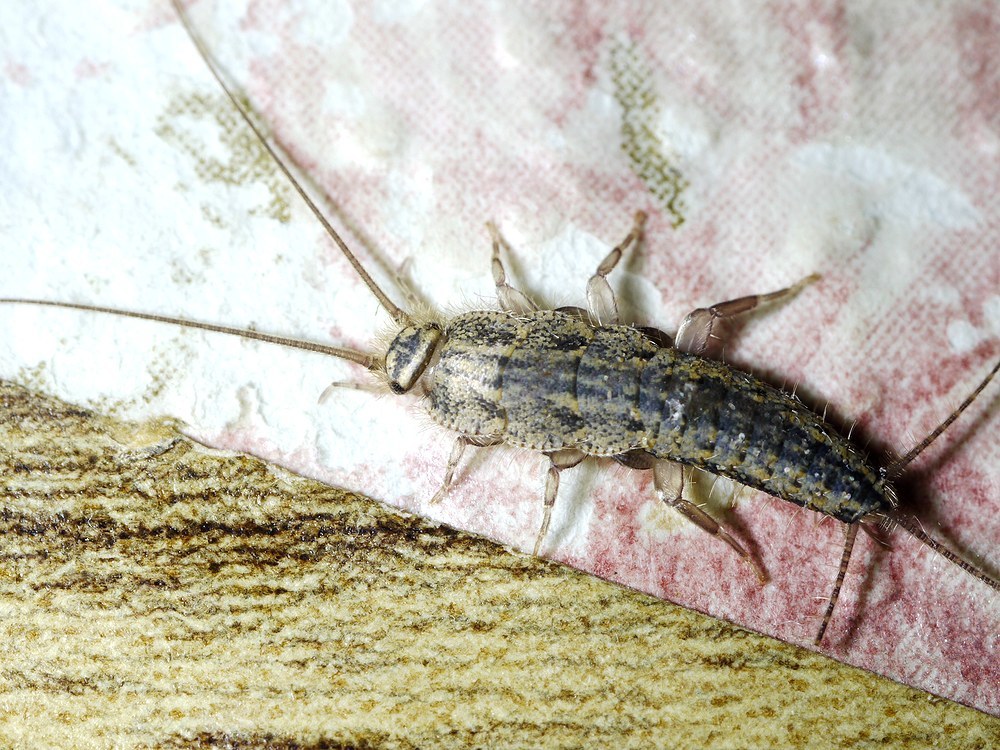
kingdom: Animalia
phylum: Arthropoda
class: Insecta
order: Zygentoma
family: Lepismatidae
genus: Ctenolepisma
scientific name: Ctenolepisma lineata
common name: Four-lined silverfish
